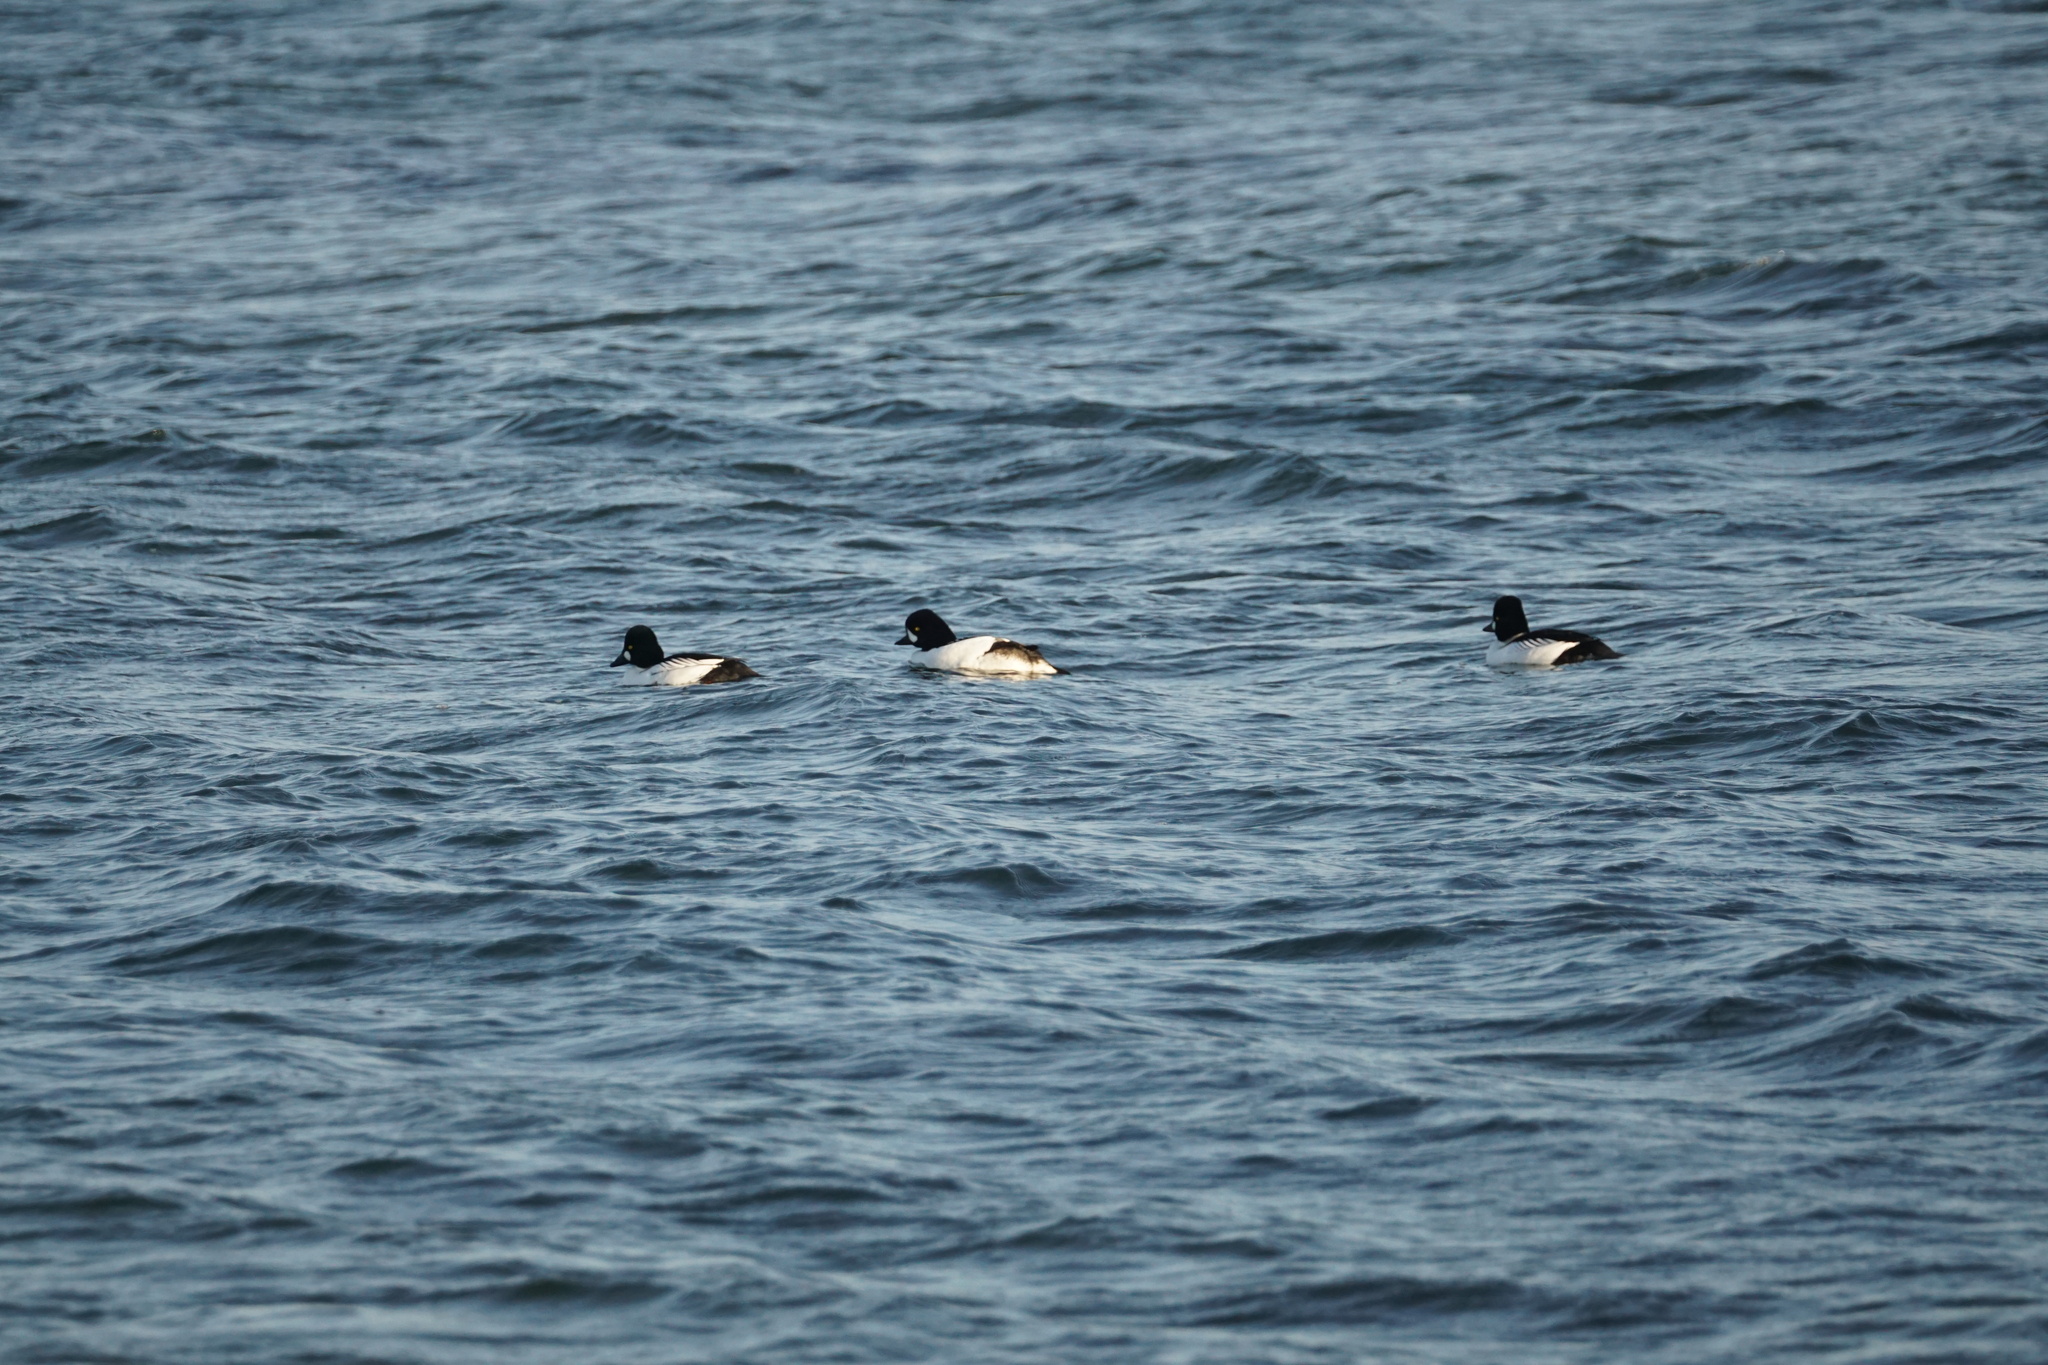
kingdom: Animalia
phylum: Chordata
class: Aves
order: Anseriformes
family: Anatidae
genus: Bucephala
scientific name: Bucephala islandica
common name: Barrow's goldeneye
